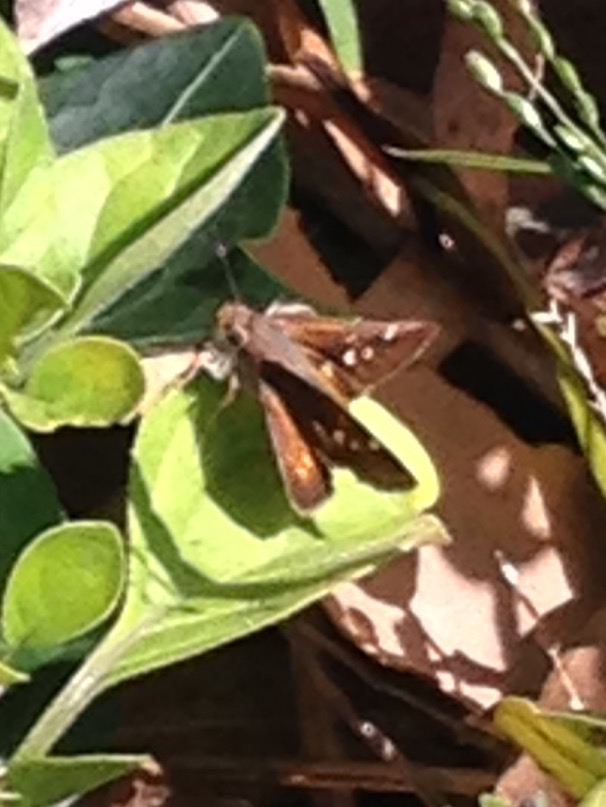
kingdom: Animalia
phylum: Arthropoda
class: Insecta
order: Lepidoptera
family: Hesperiidae
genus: Lon
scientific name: Lon melane
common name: Umber skipper
